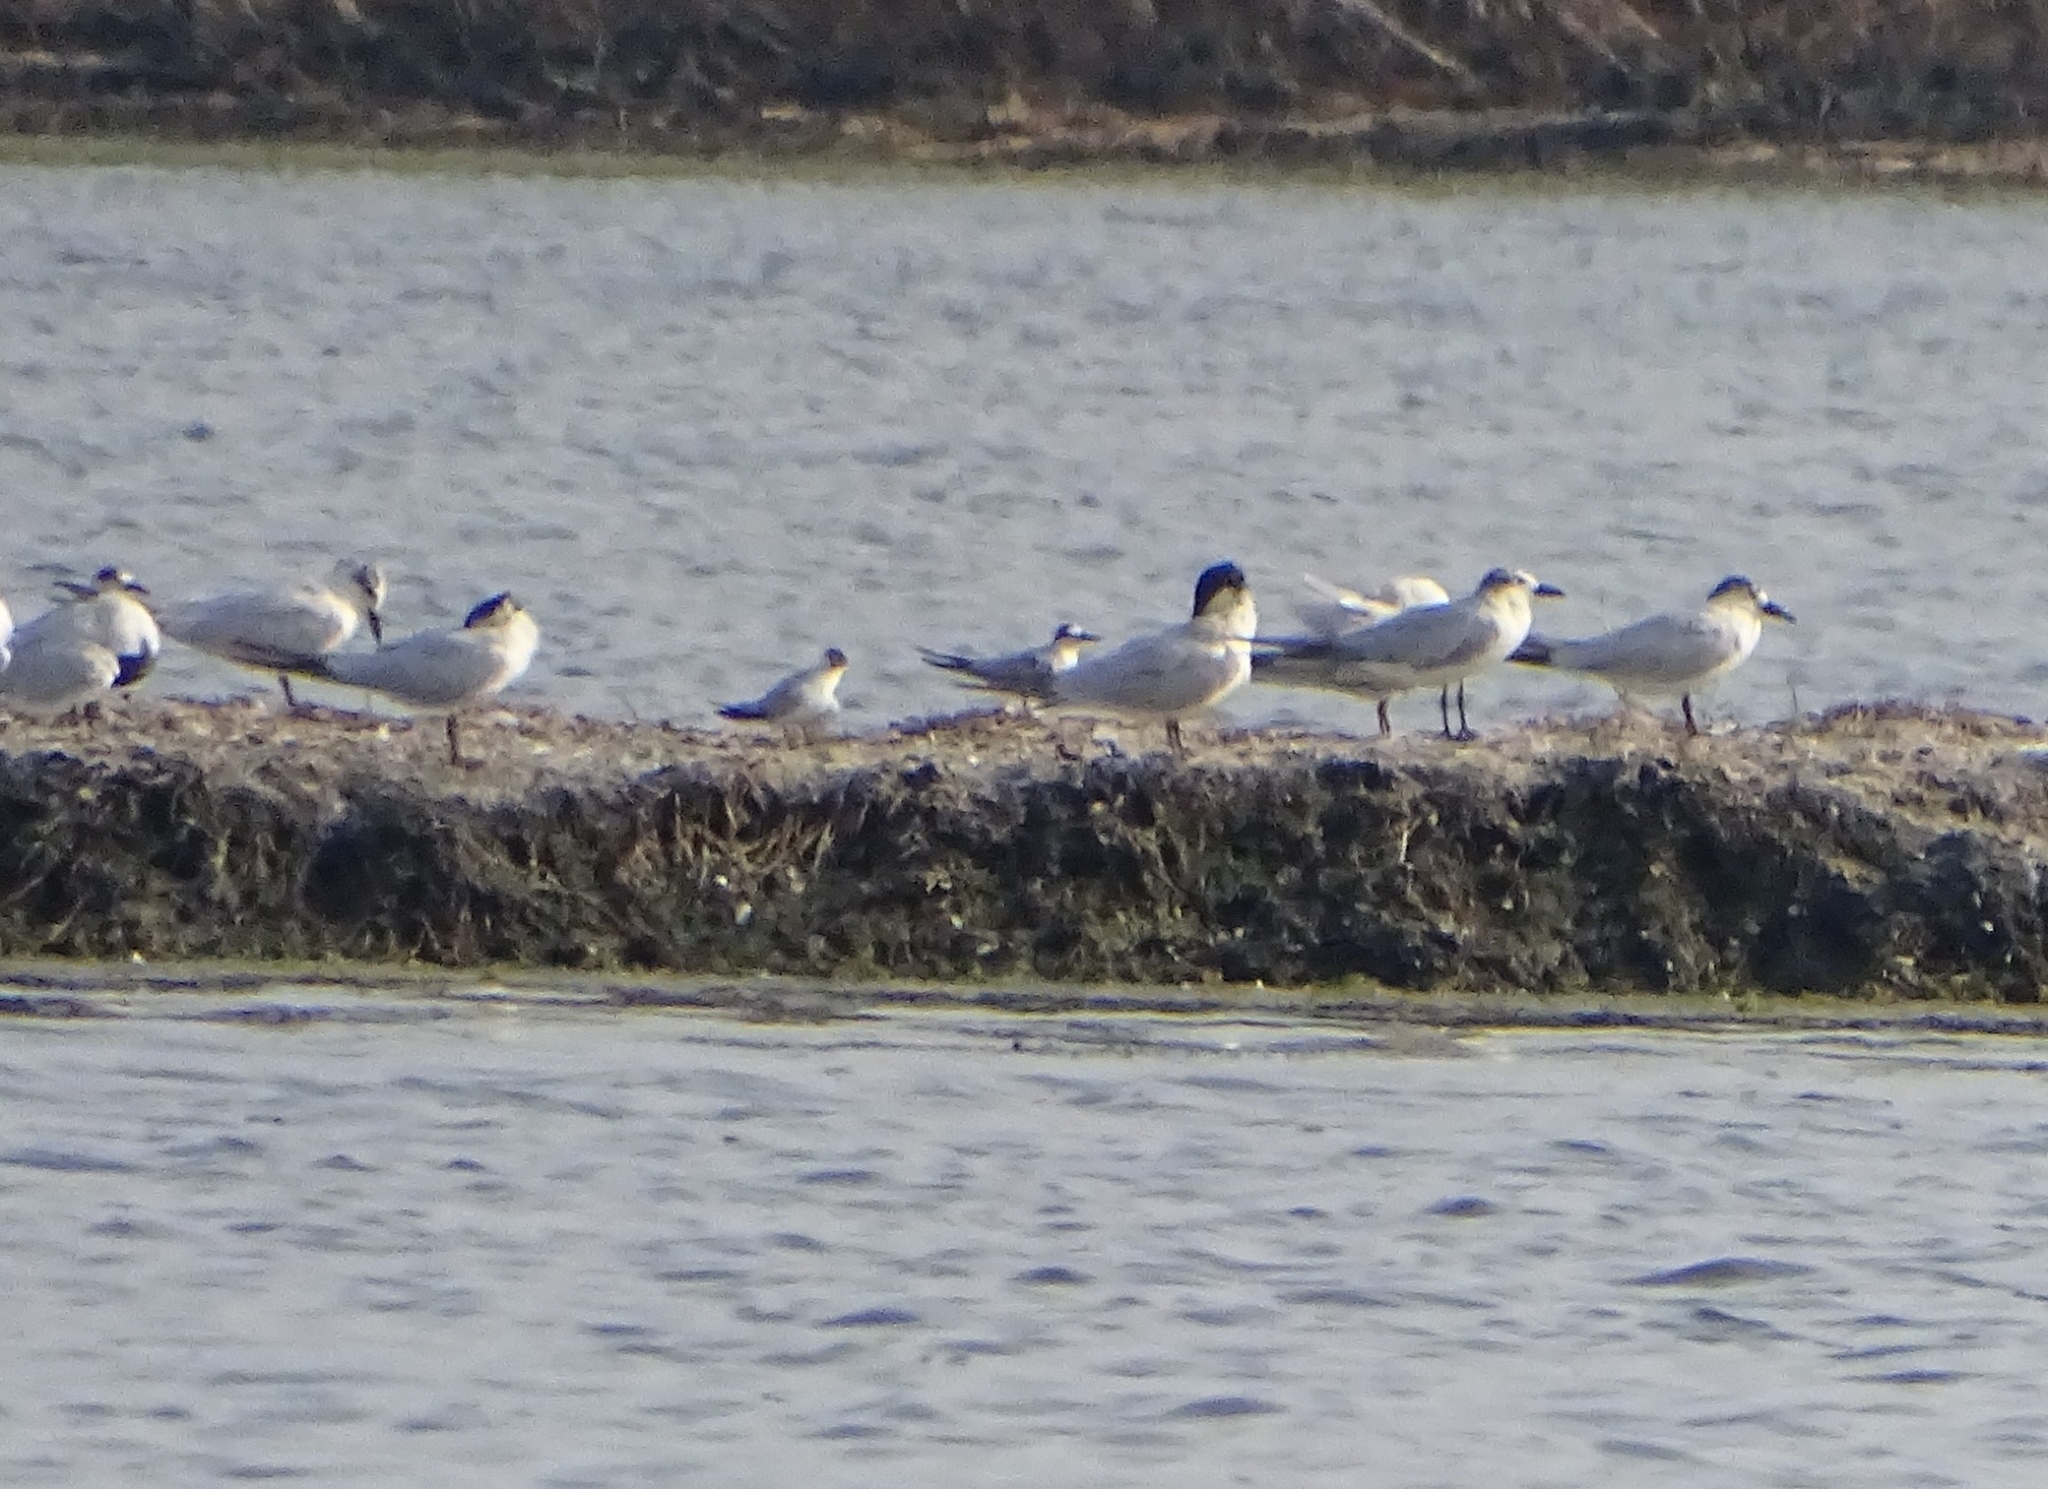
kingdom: Animalia
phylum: Chordata
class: Aves
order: Charadriiformes
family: Laridae
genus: Gelochelidon
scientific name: Gelochelidon nilotica
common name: Gull-billed tern
